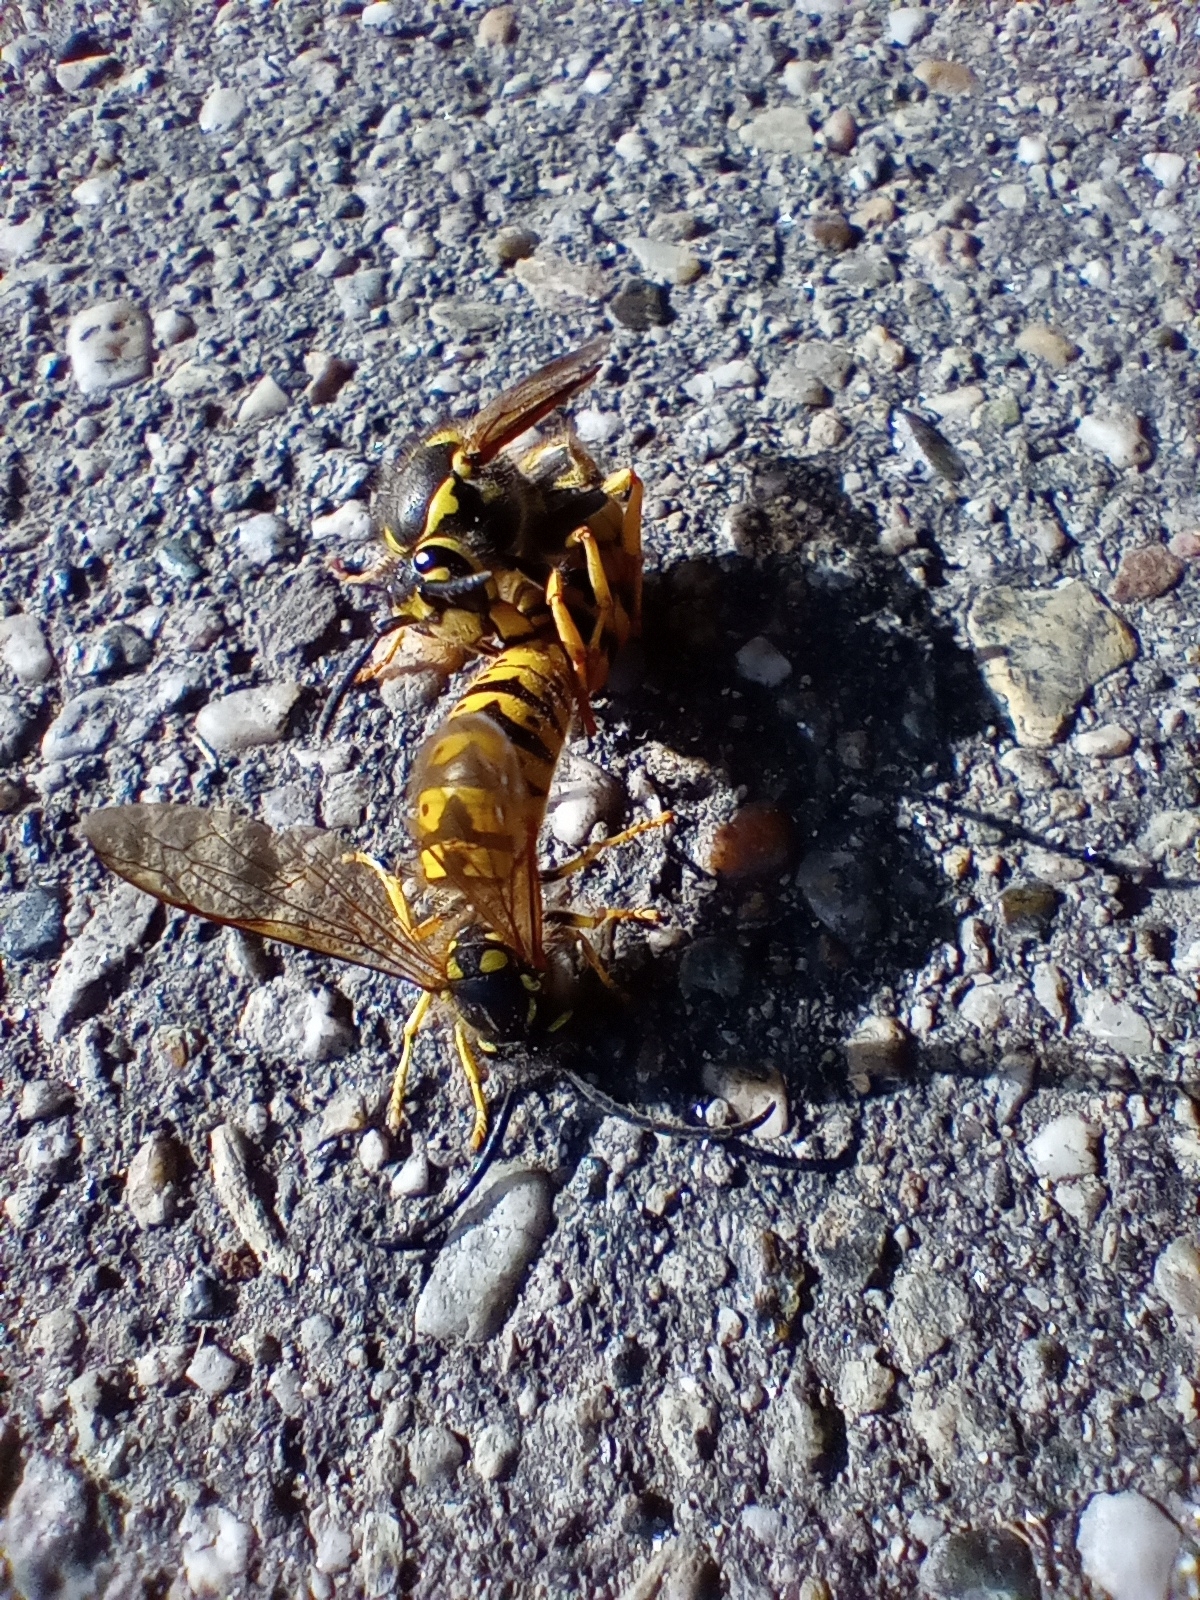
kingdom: Animalia
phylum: Arthropoda
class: Insecta
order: Hymenoptera
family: Vespidae
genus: Vespula
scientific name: Vespula germanica
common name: German wasp
